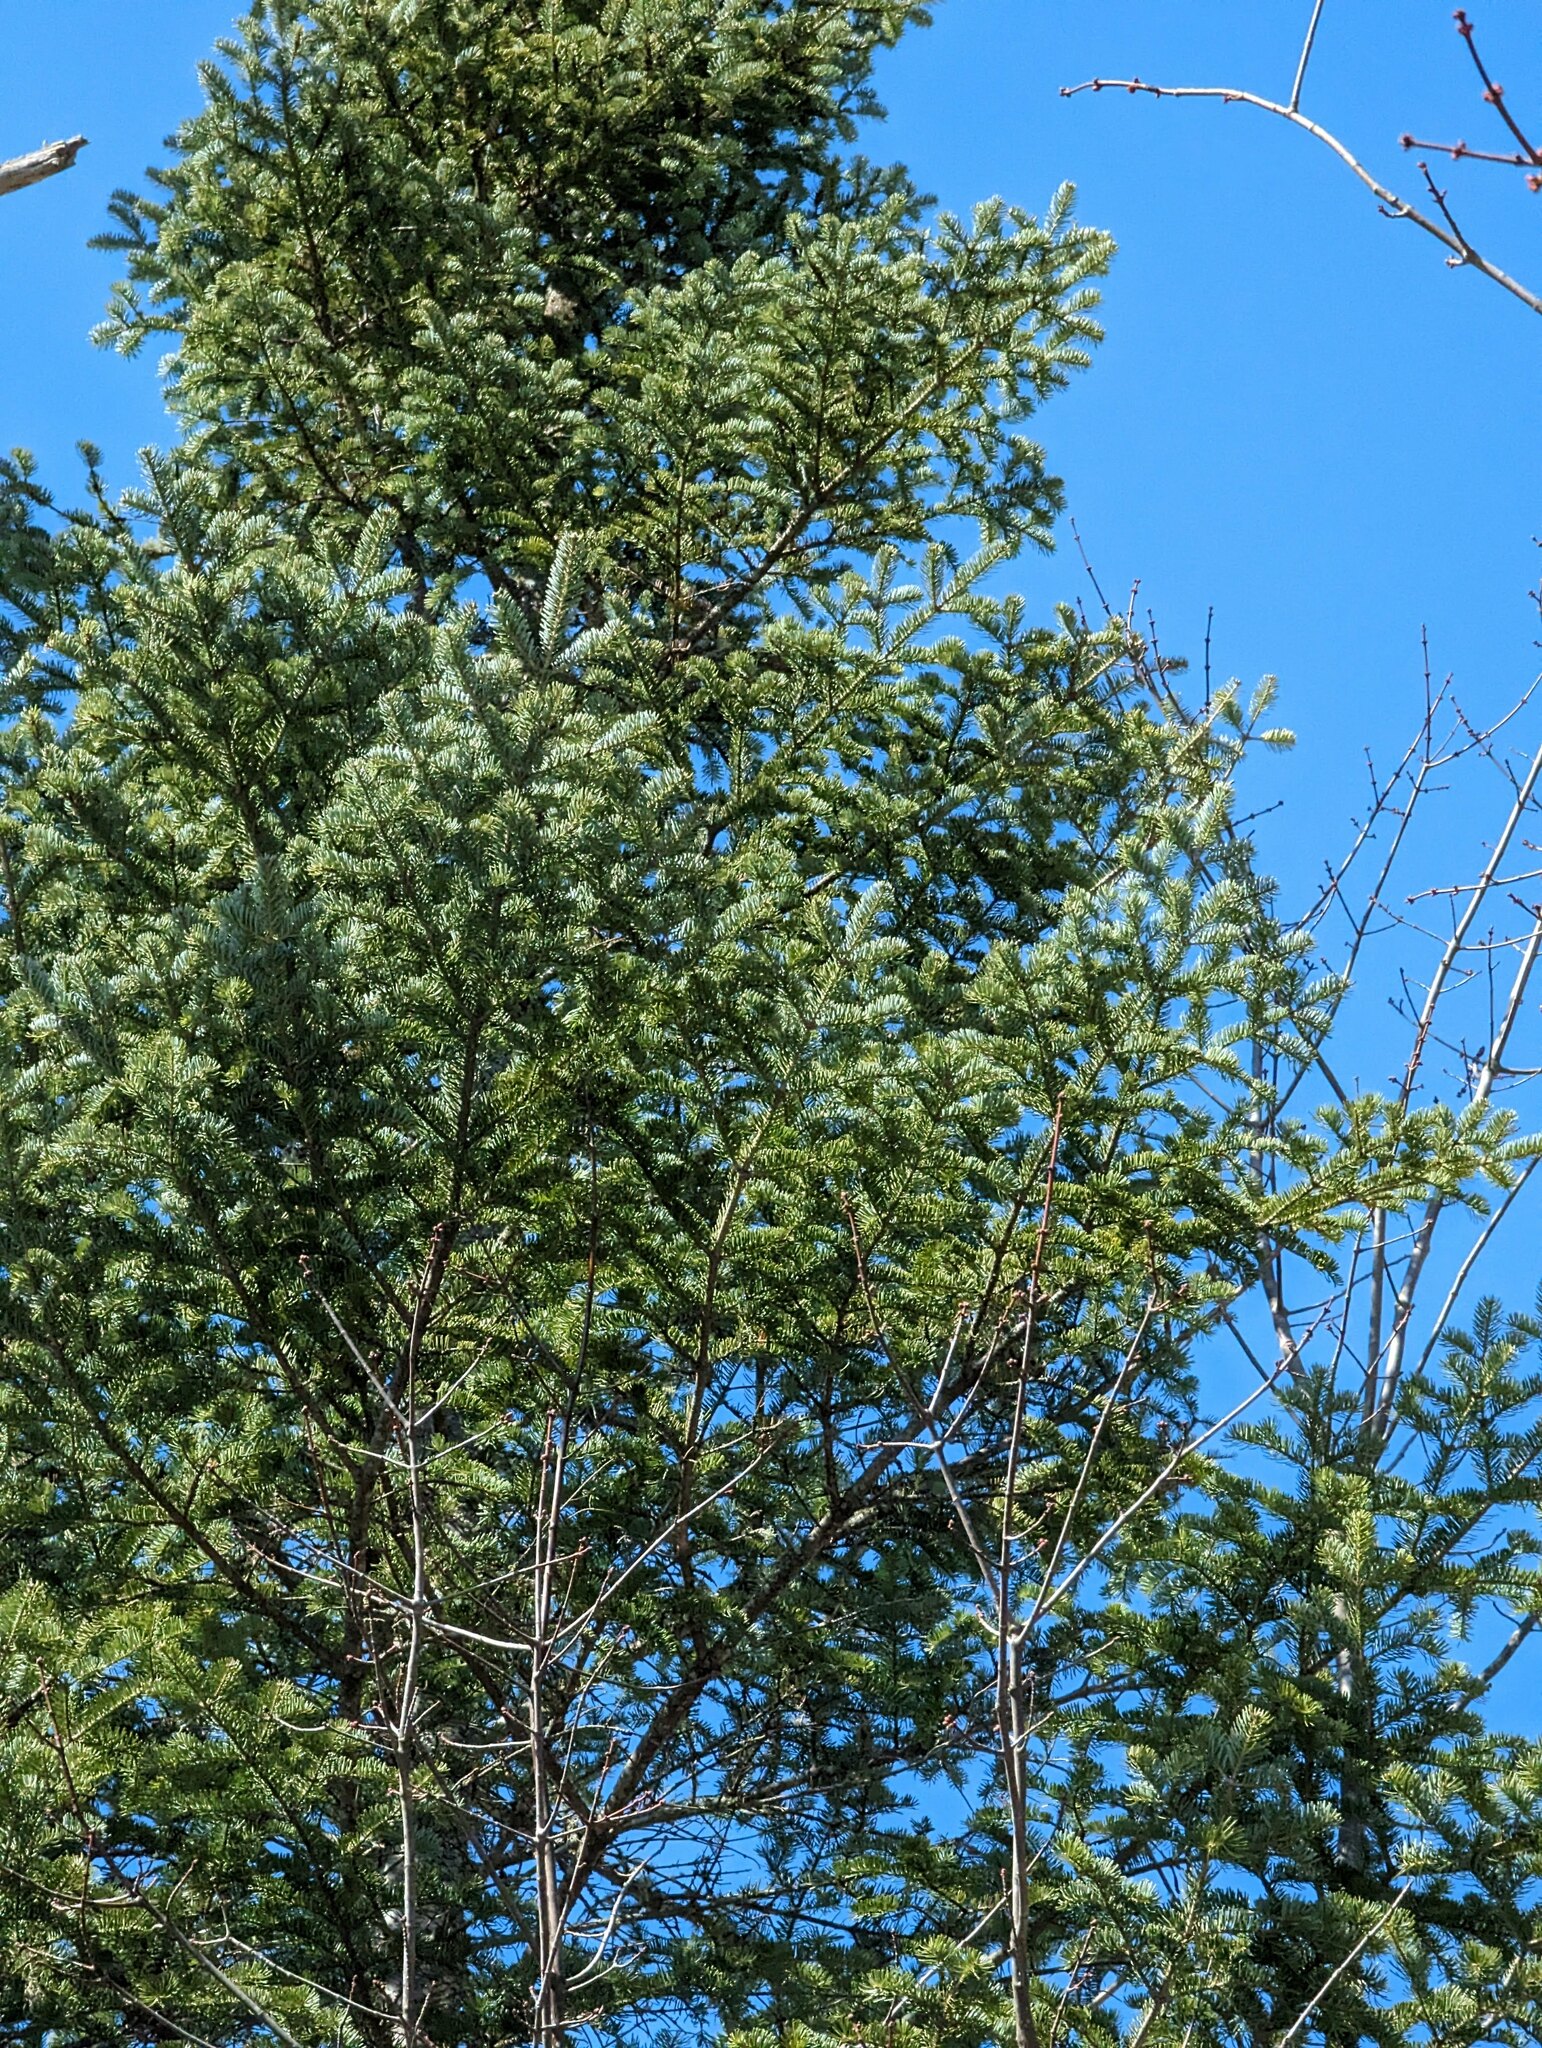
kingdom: Plantae
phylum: Tracheophyta
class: Pinopsida
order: Pinales
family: Pinaceae
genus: Abies
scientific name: Abies balsamea
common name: Balsam fir
